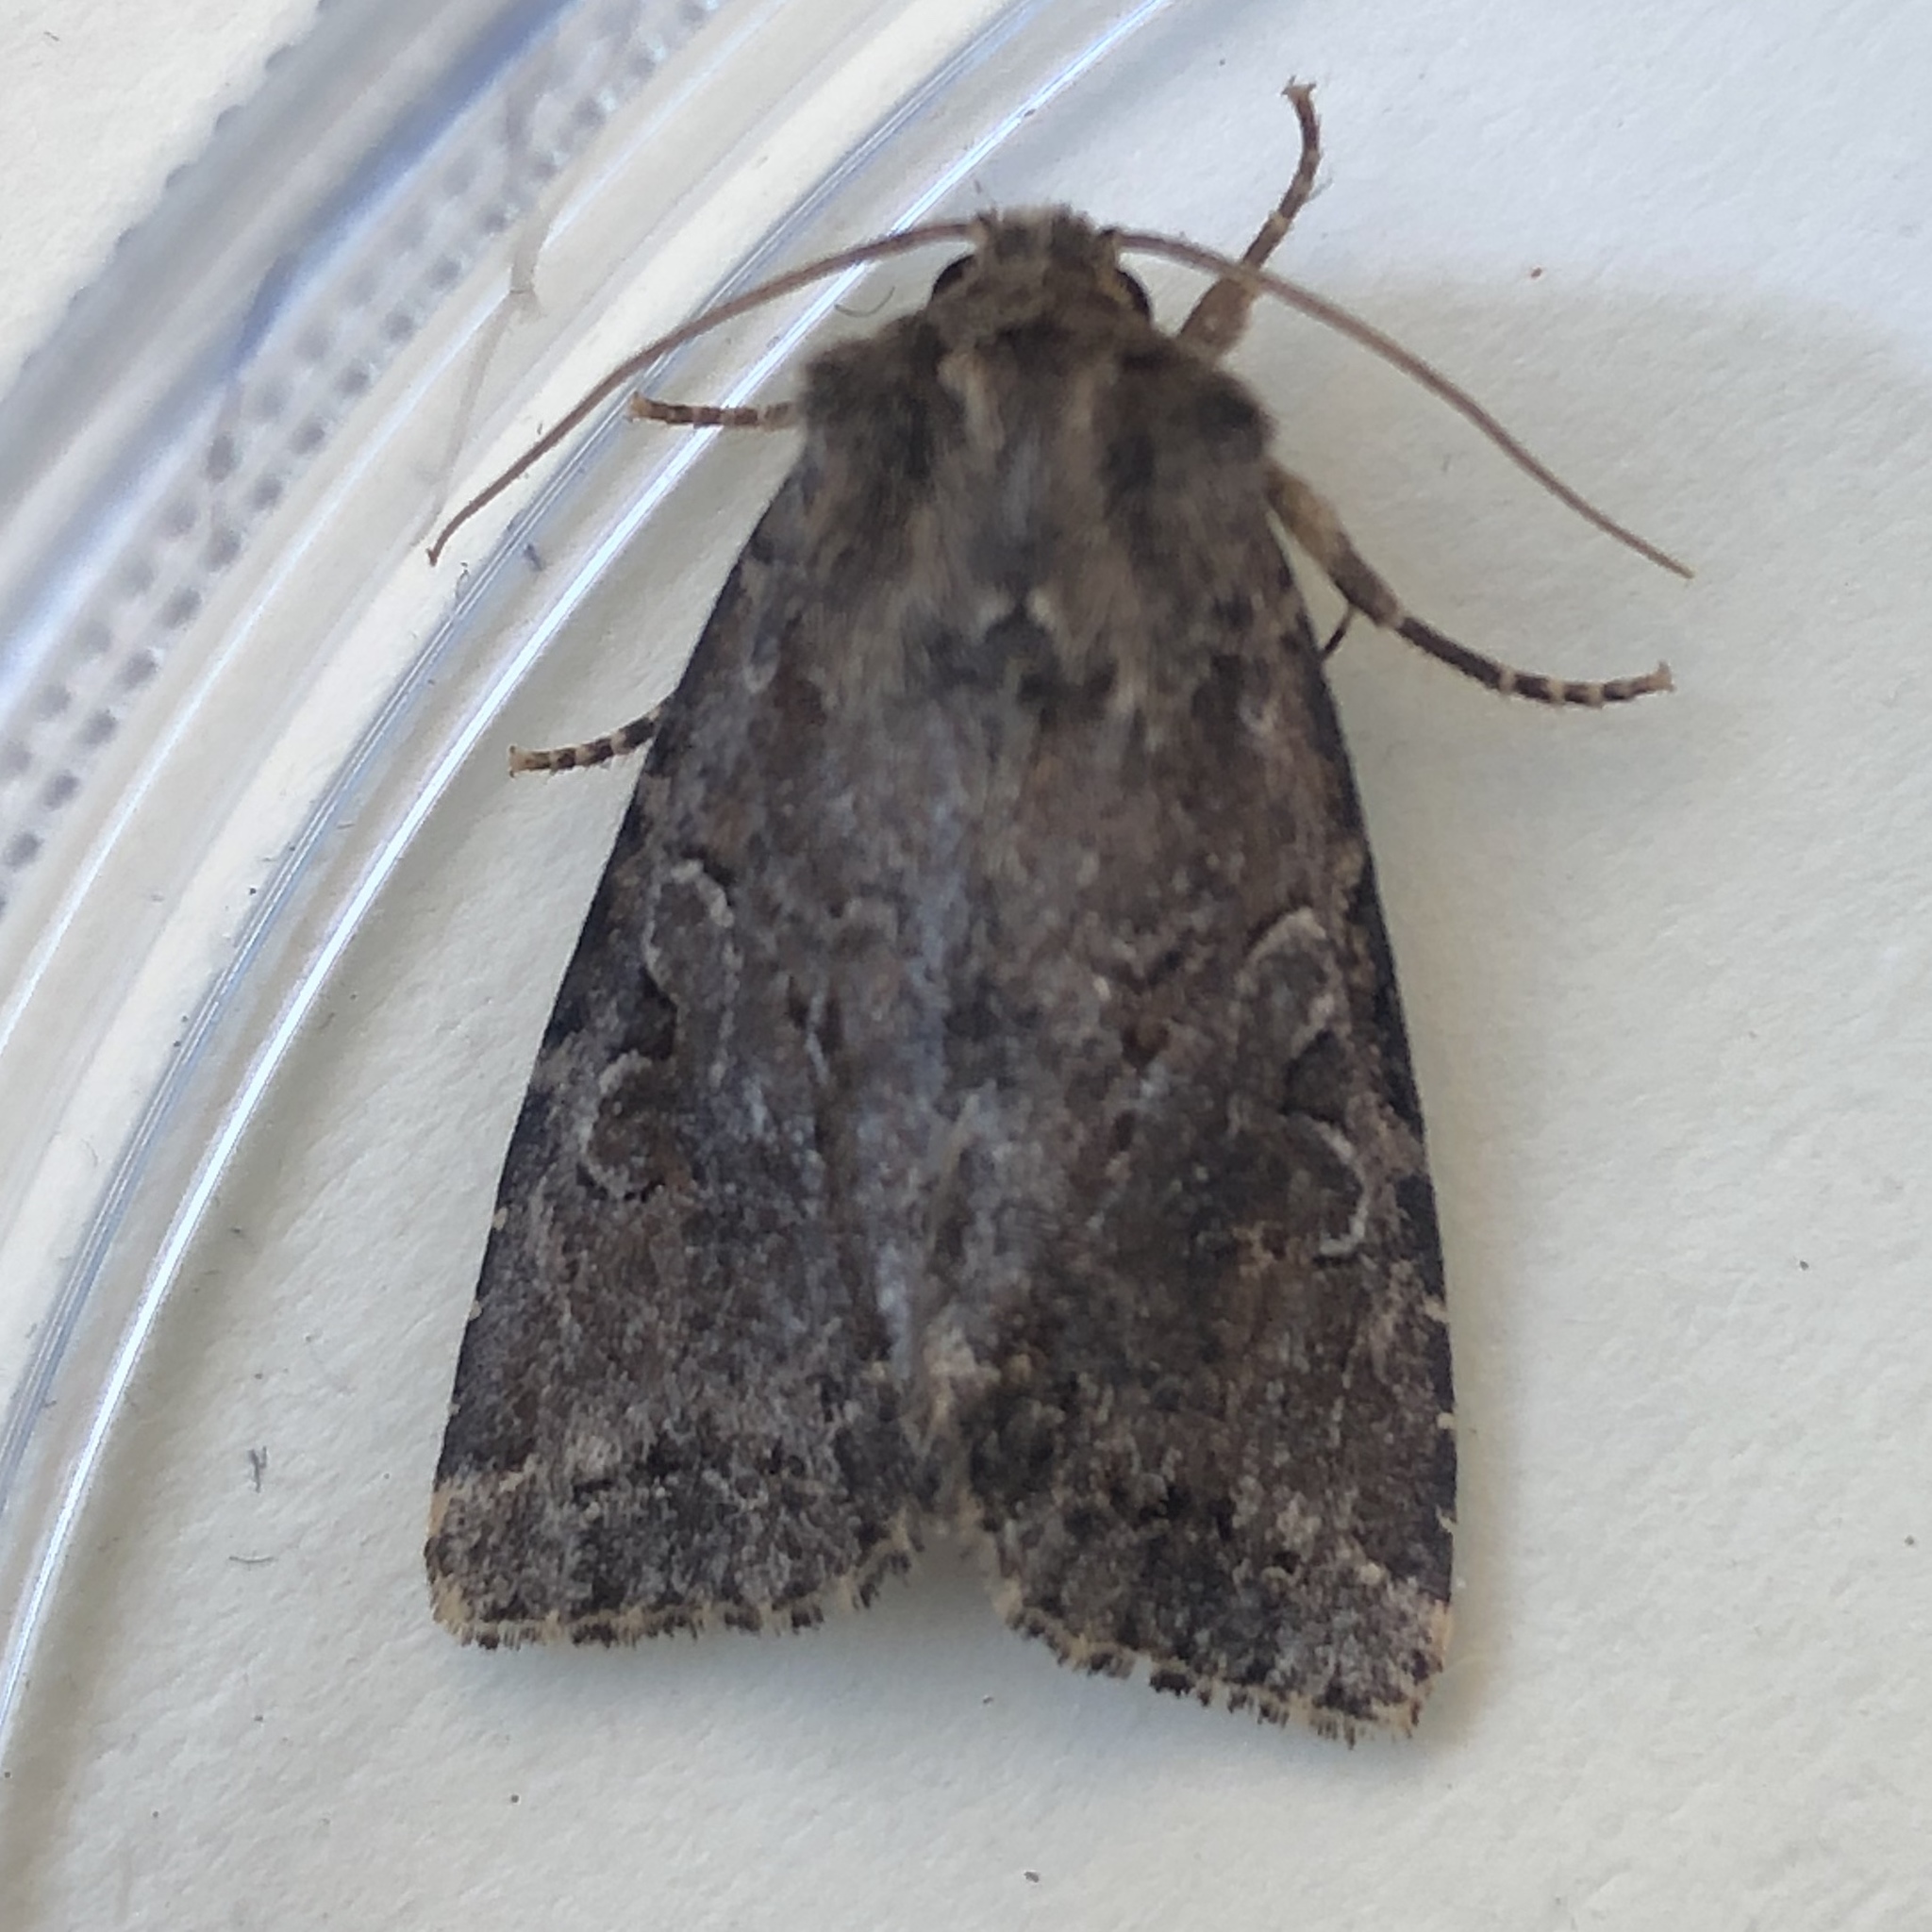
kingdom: Animalia
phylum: Arthropoda
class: Insecta
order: Lepidoptera
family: Noctuidae
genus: Apterogenum
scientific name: Apterogenum ypsillon
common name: Dingy shears
